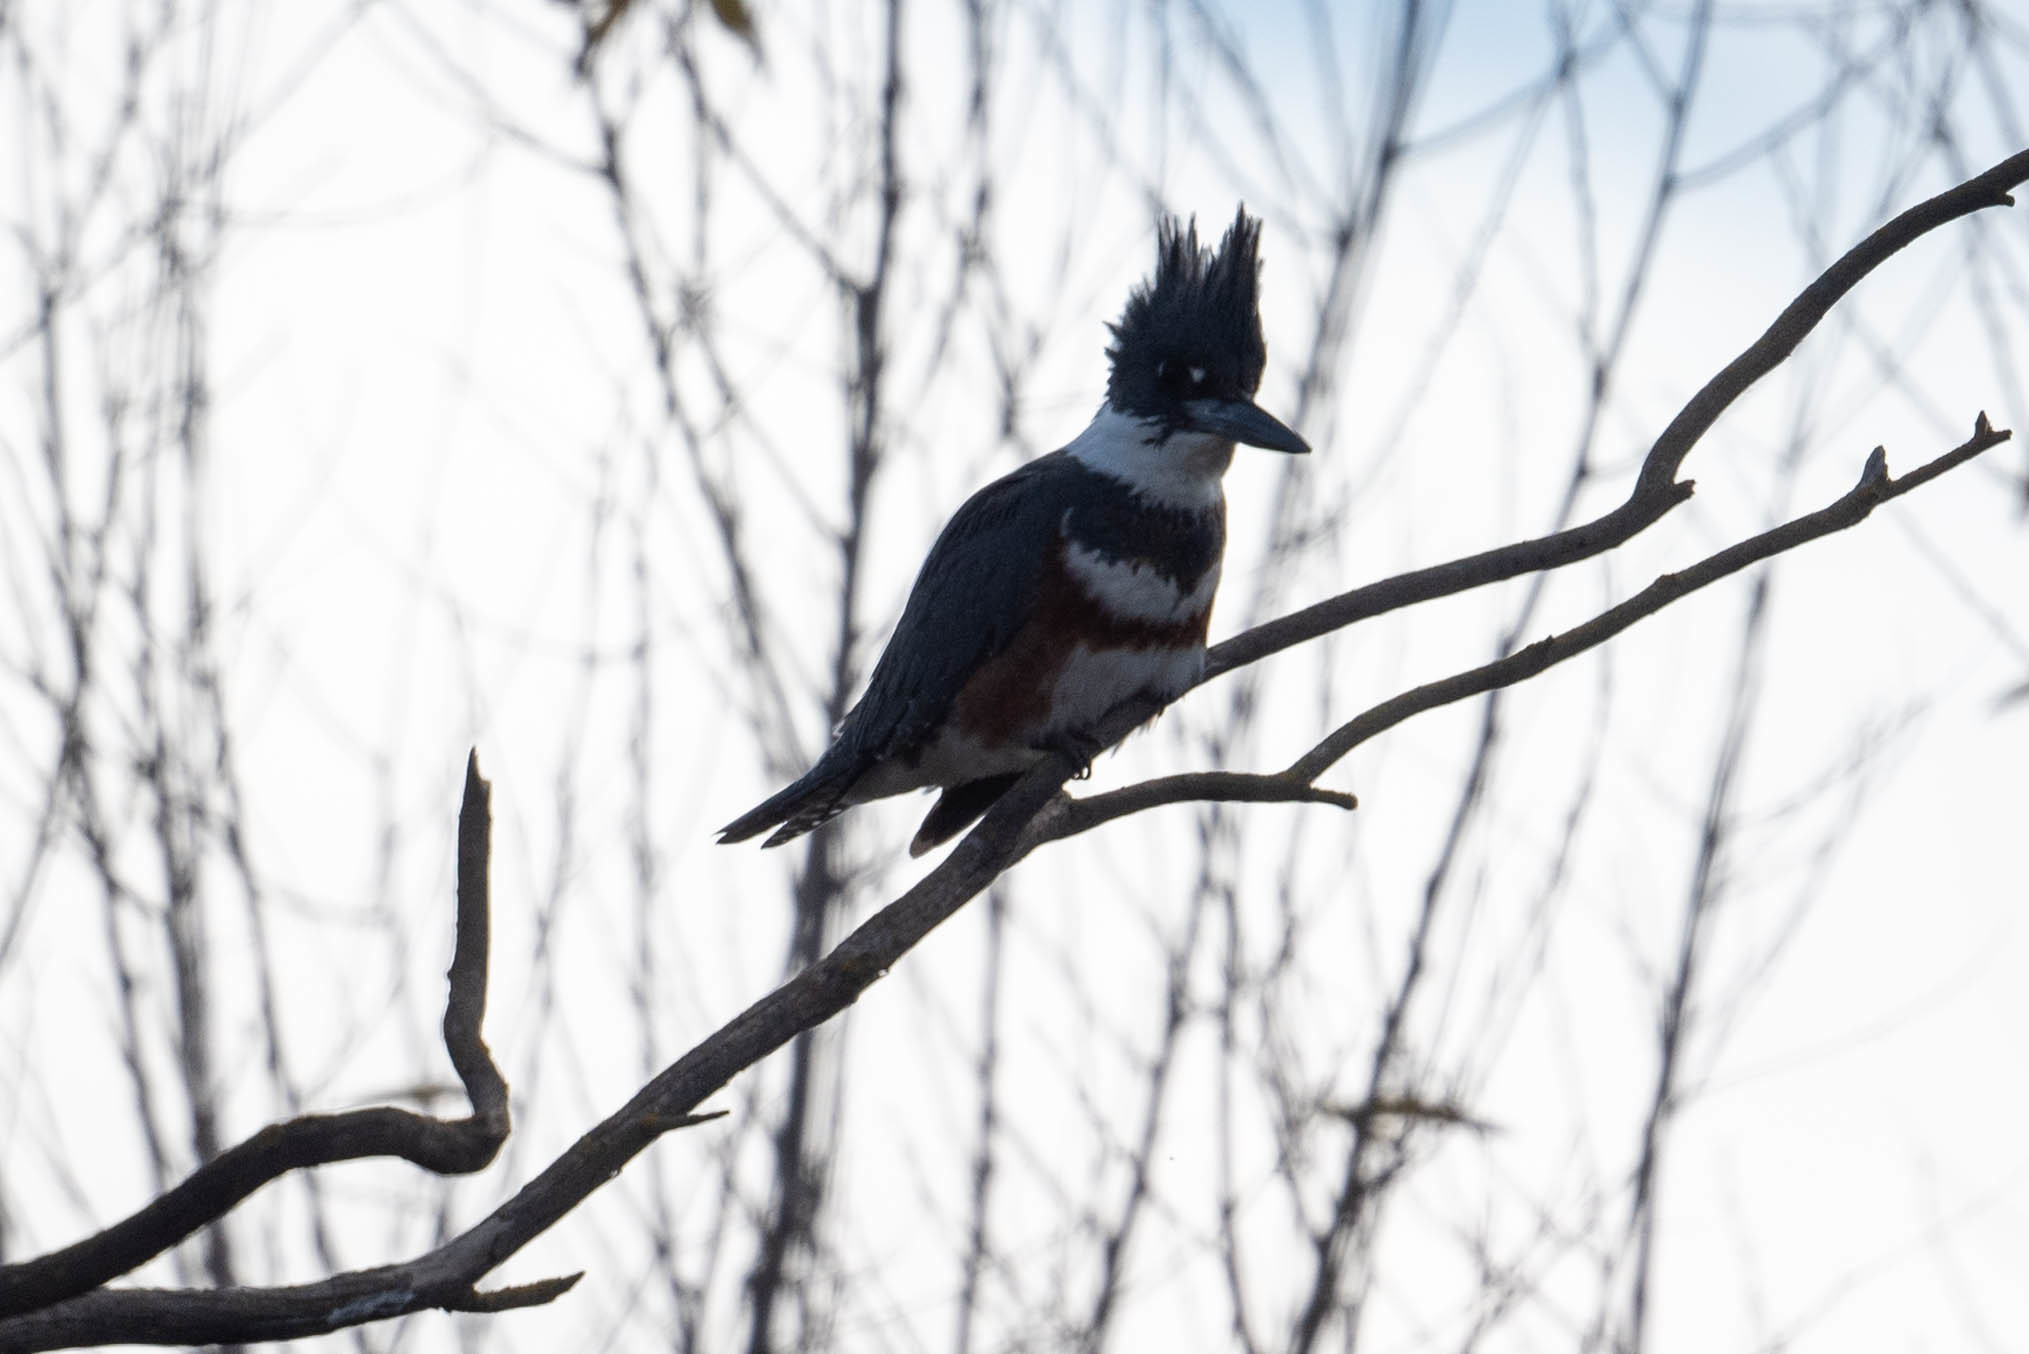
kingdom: Animalia
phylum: Chordata
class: Aves
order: Coraciiformes
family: Alcedinidae
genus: Megaceryle
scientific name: Megaceryle alcyon
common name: Belted kingfisher
